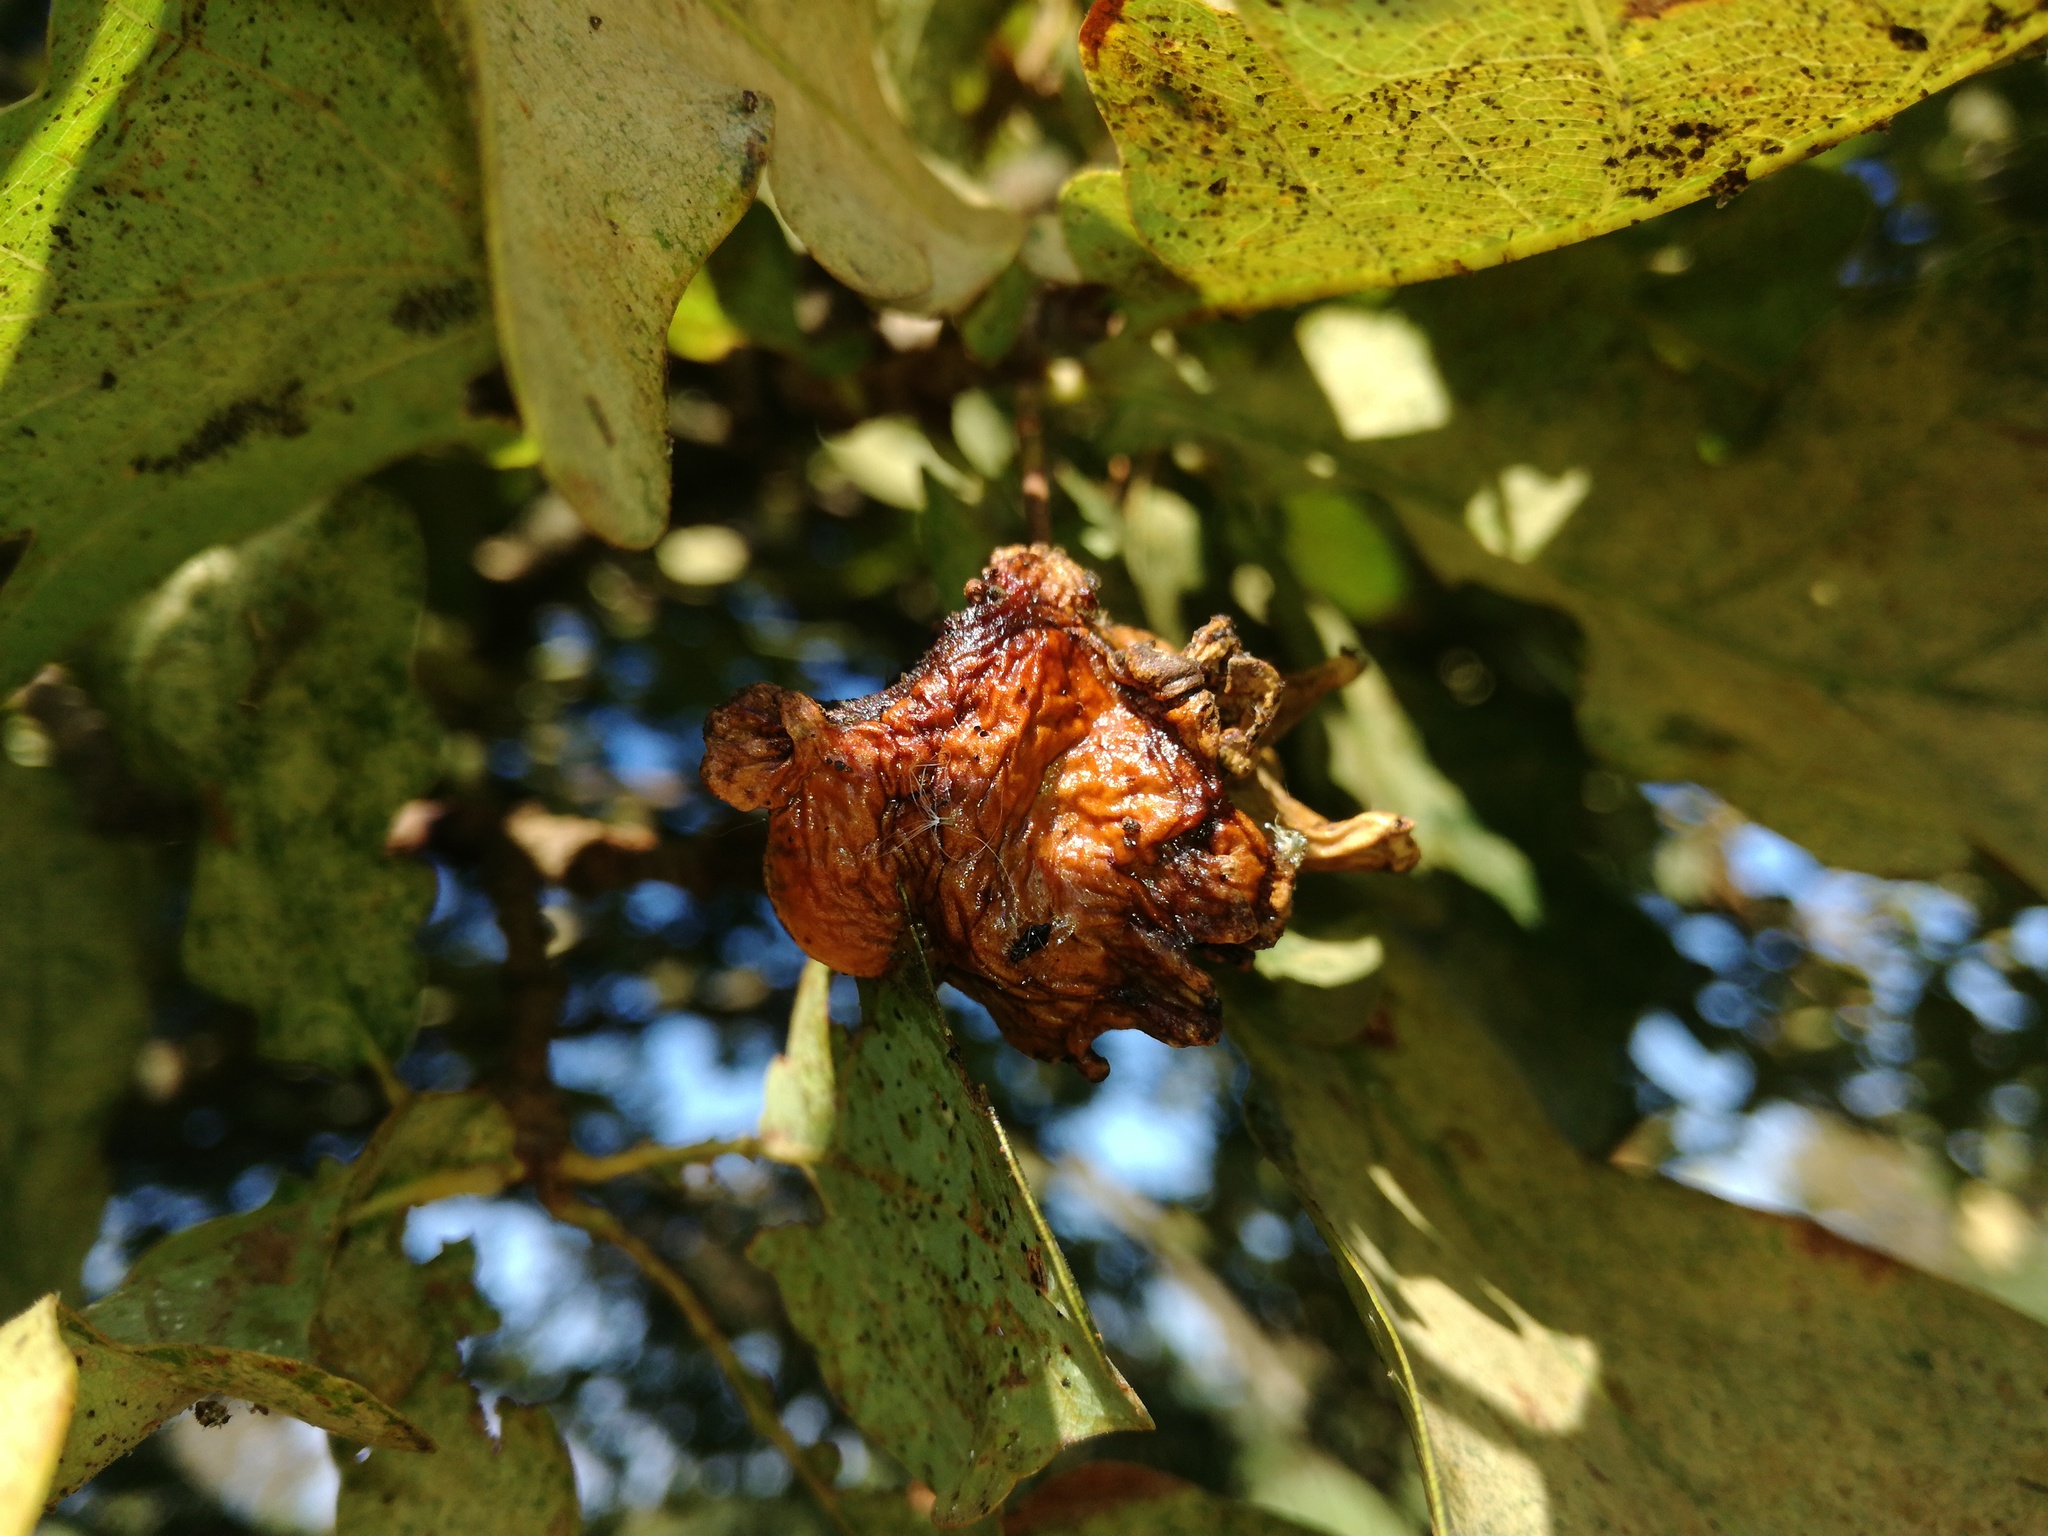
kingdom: Animalia
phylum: Arthropoda
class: Insecta
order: Hymenoptera
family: Cynipidae
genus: Andricus
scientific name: Andricus quercuscalicis
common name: Knopper gall
